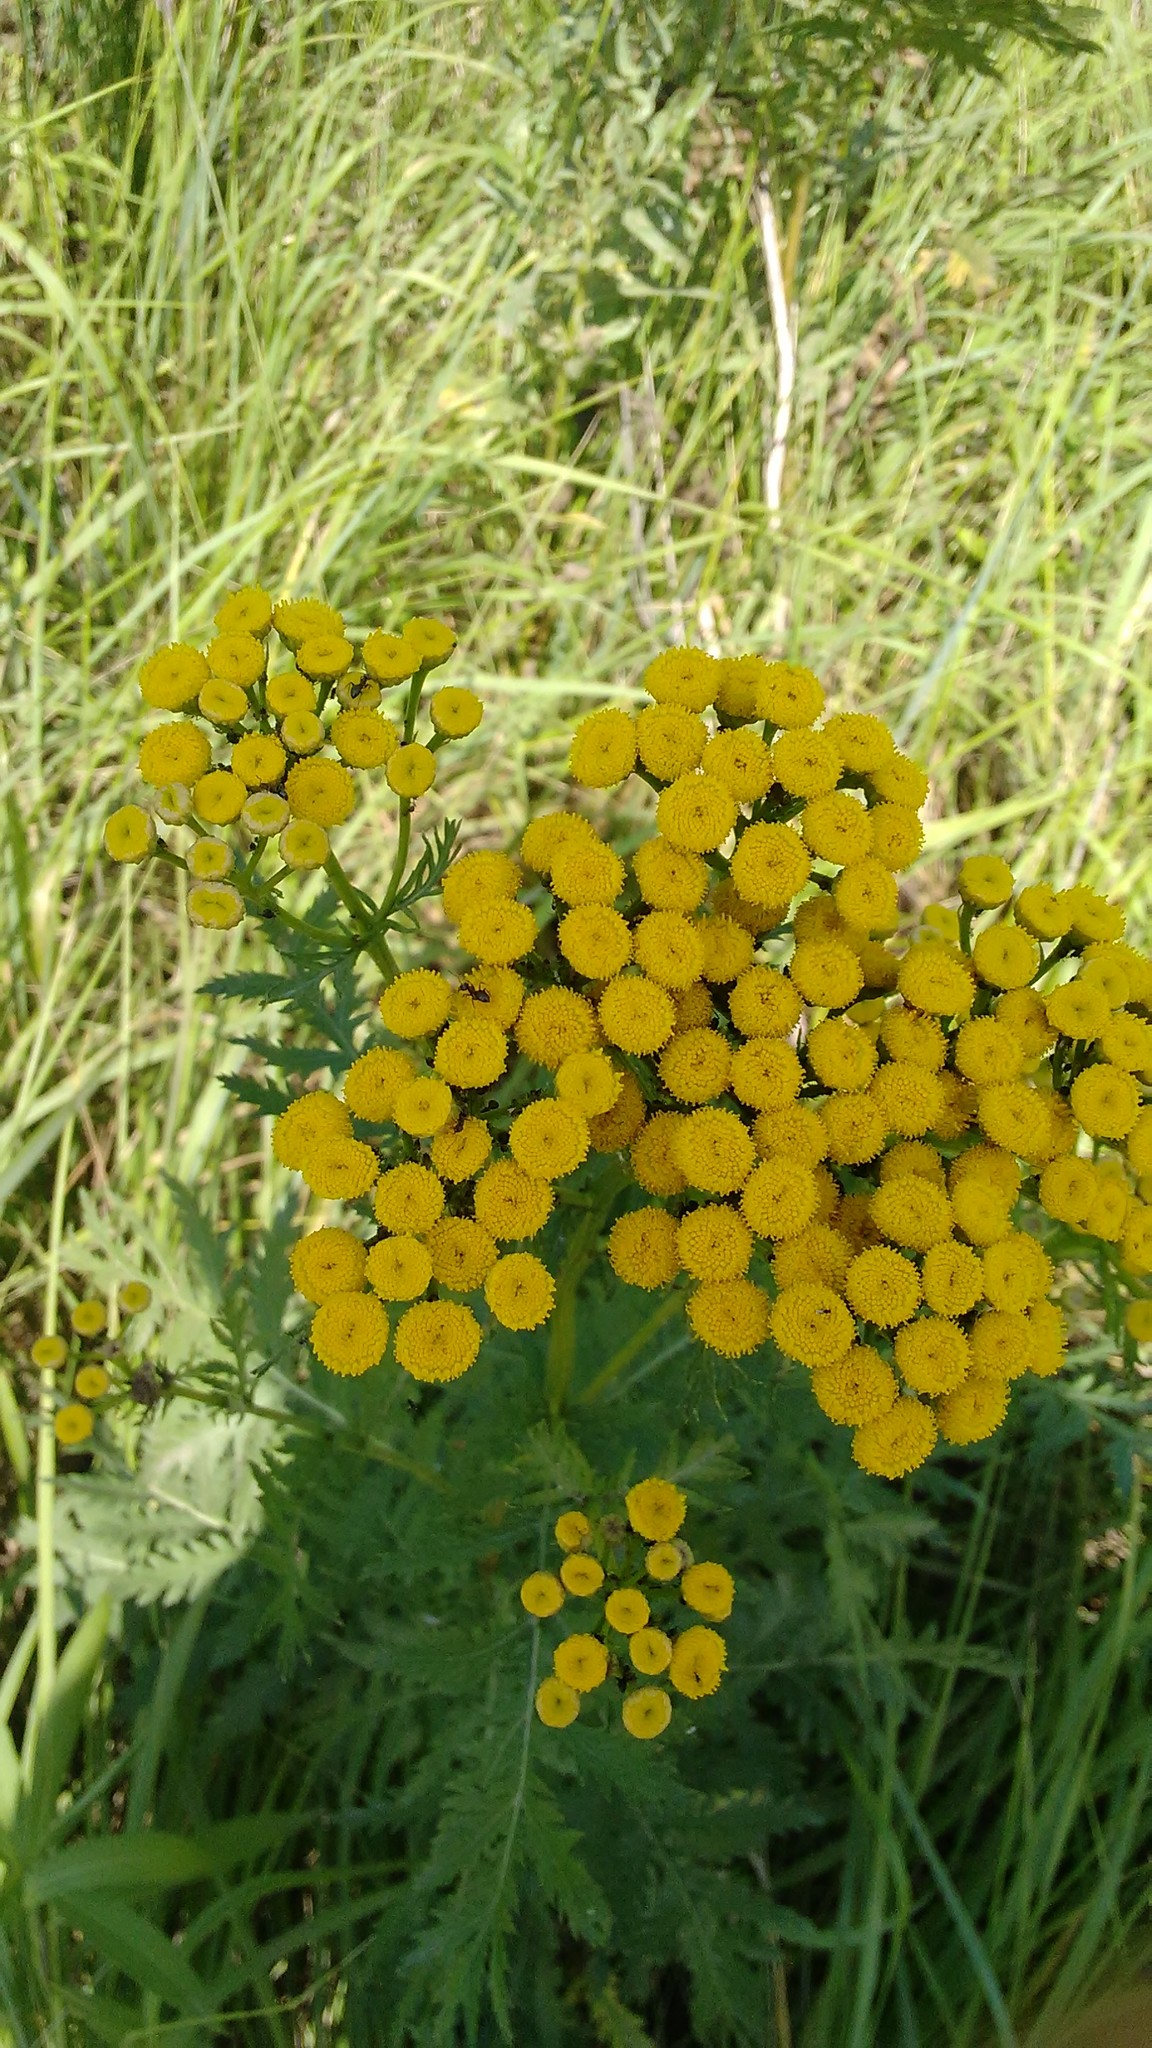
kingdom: Plantae
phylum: Tracheophyta
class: Magnoliopsida
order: Asterales
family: Asteraceae
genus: Tanacetum
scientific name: Tanacetum vulgare
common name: Common tansy
